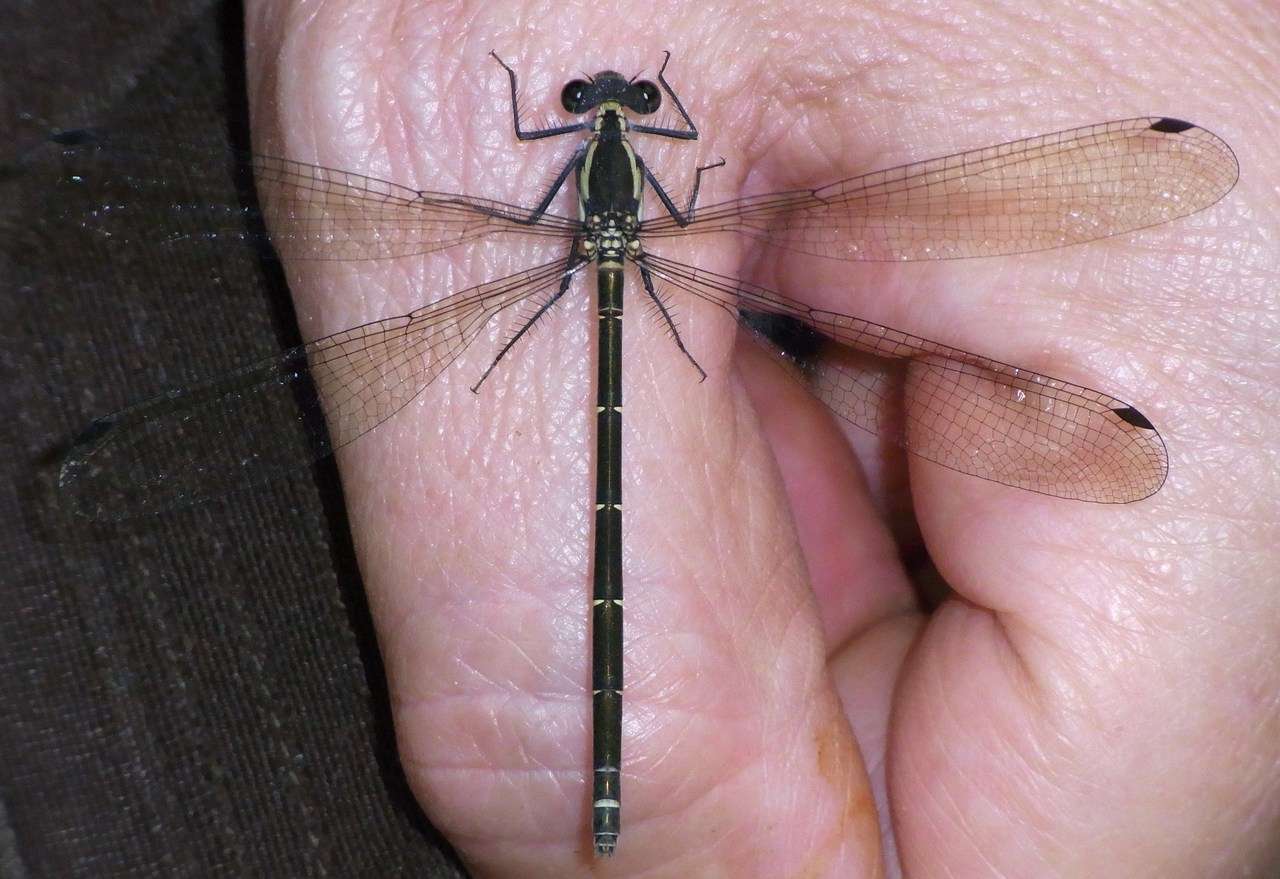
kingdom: Animalia
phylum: Arthropoda
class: Insecta
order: Odonata
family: Argiolestidae
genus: Austroargiolestes
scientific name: Austroargiolestes icteromelas
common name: Common flatwing
